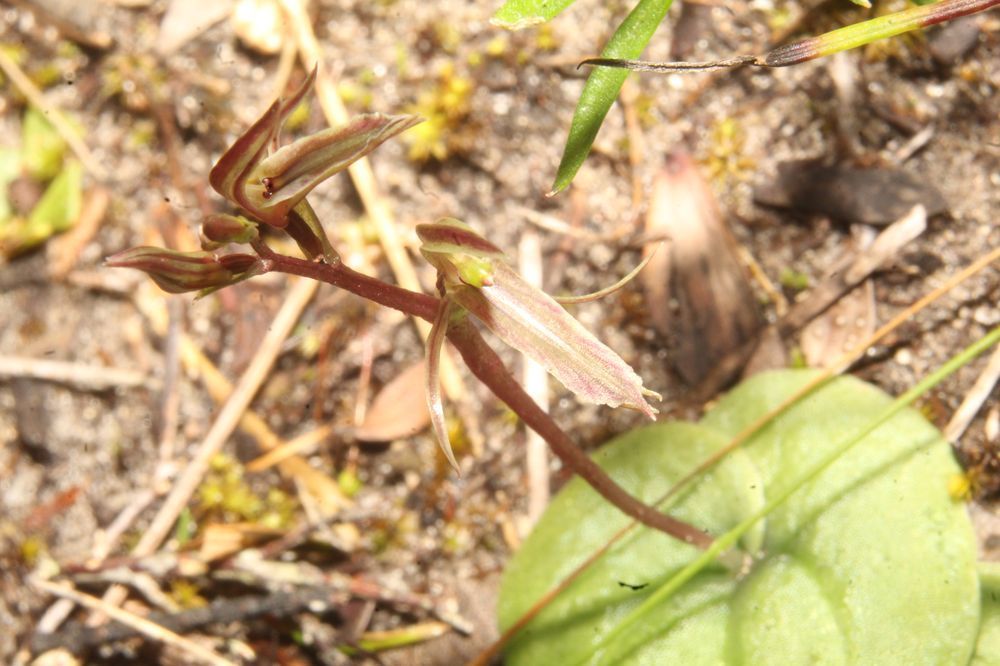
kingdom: Plantae
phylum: Tracheophyta
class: Liliopsida
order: Asparagales
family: Orchidaceae
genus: Cyrtostylis
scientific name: Cyrtostylis huegelii
